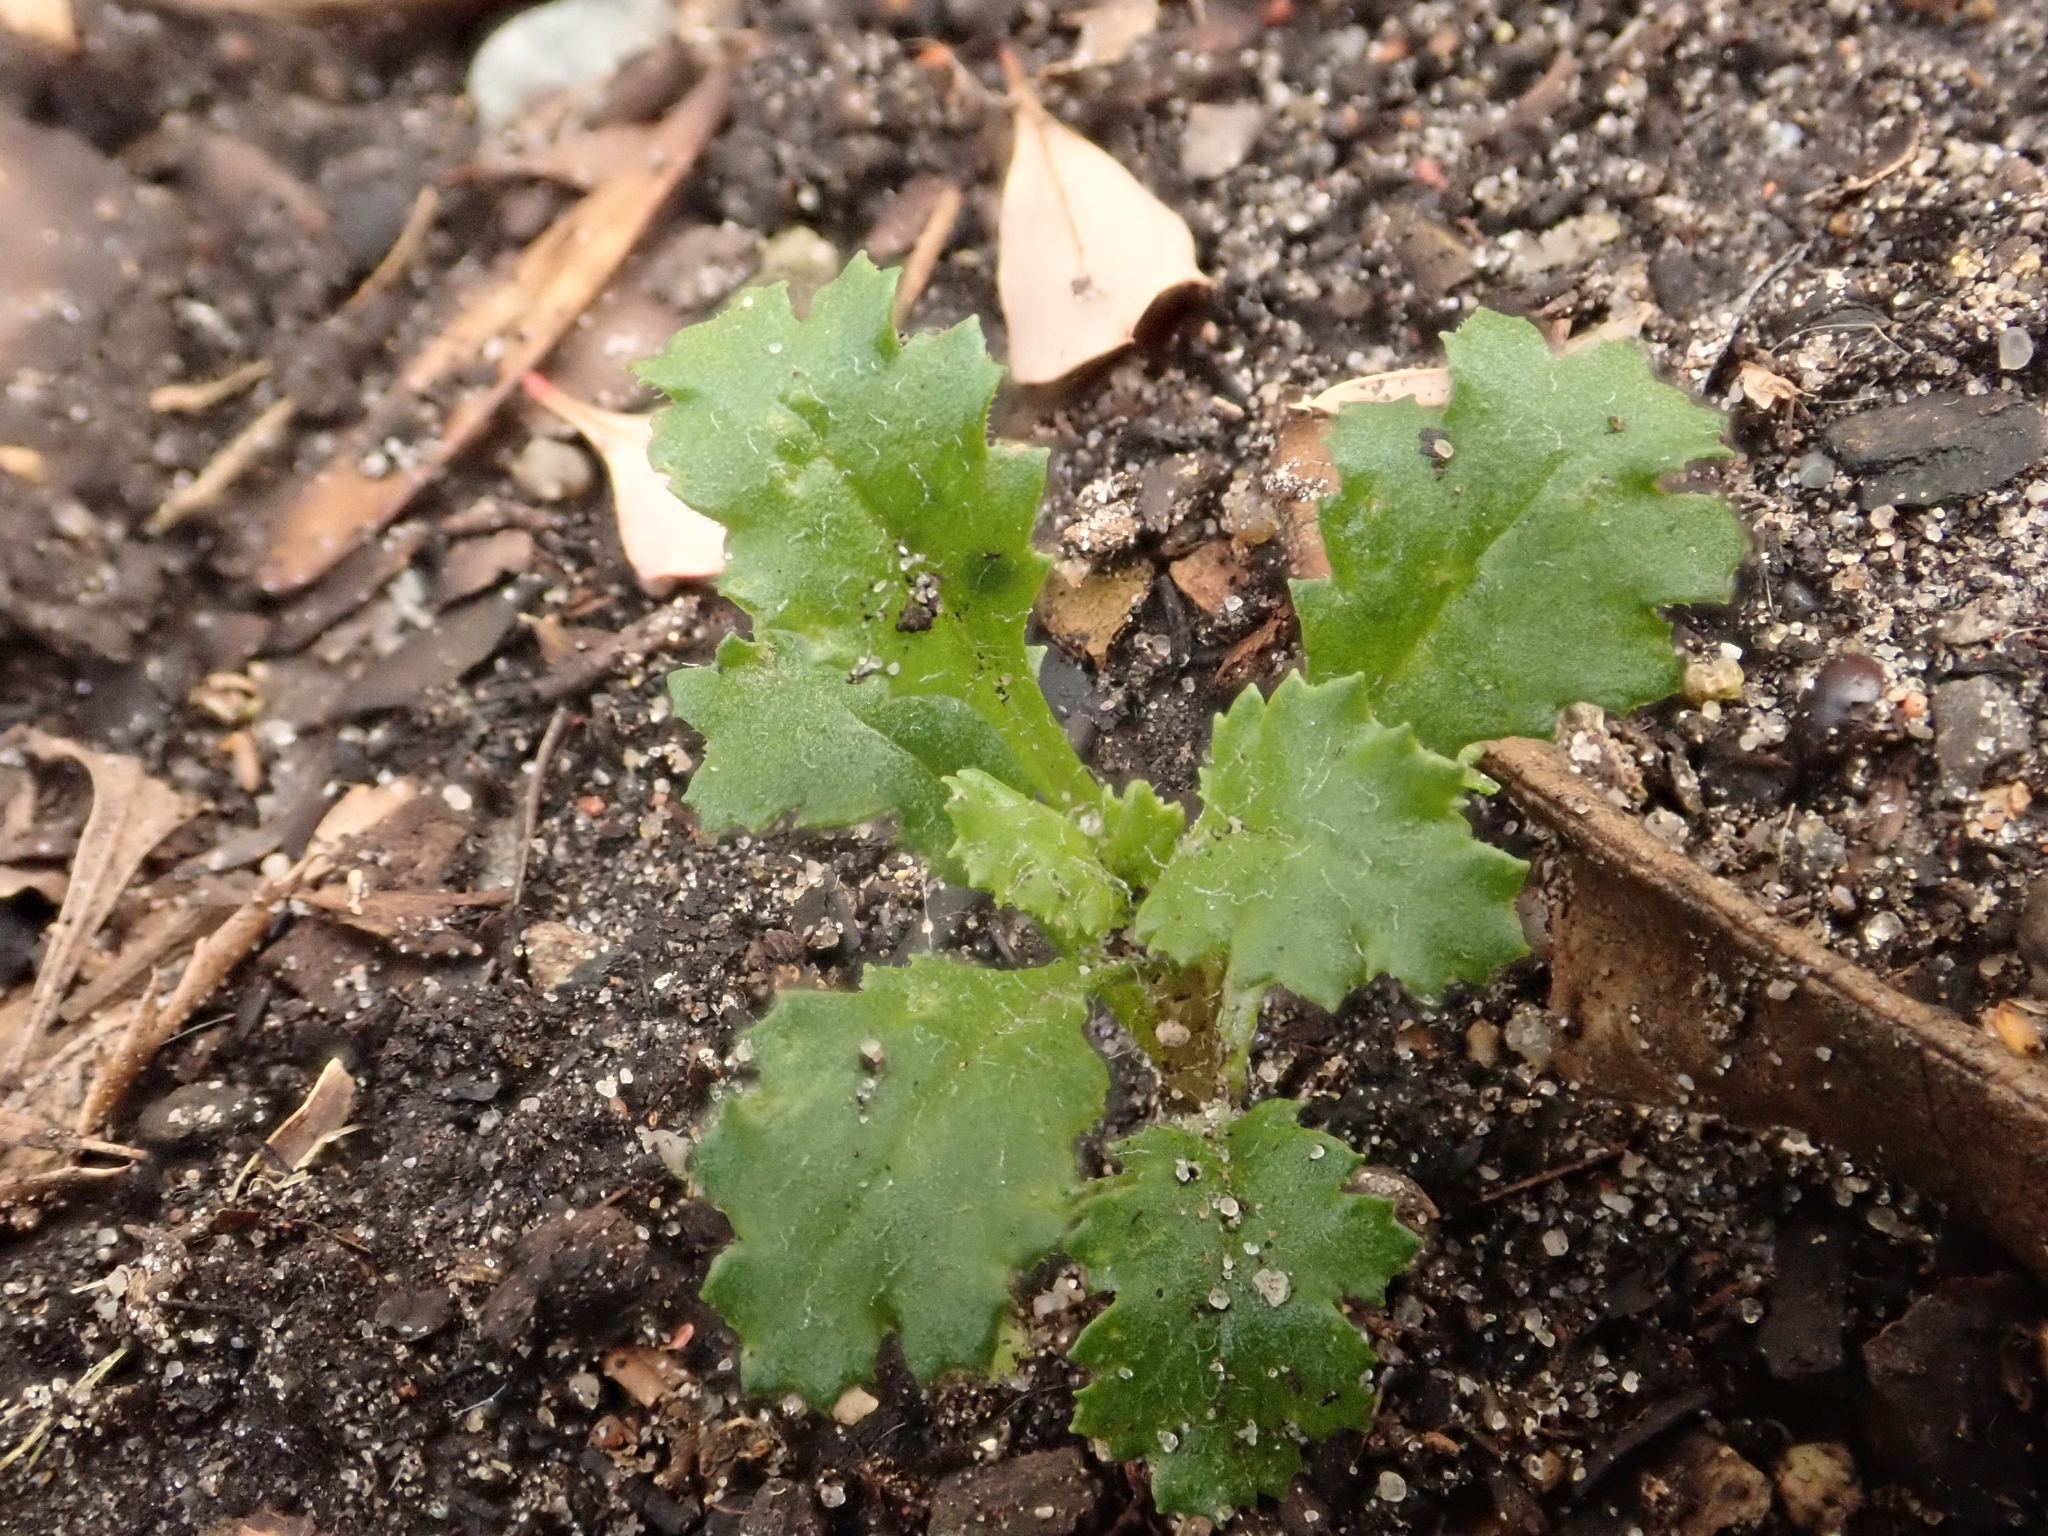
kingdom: Plantae
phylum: Tracheophyta
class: Magnoliopsida
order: Asterales
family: Asteraceae
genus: Senecio
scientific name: Senecio vulgaris
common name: Old-man-in-the-spring
